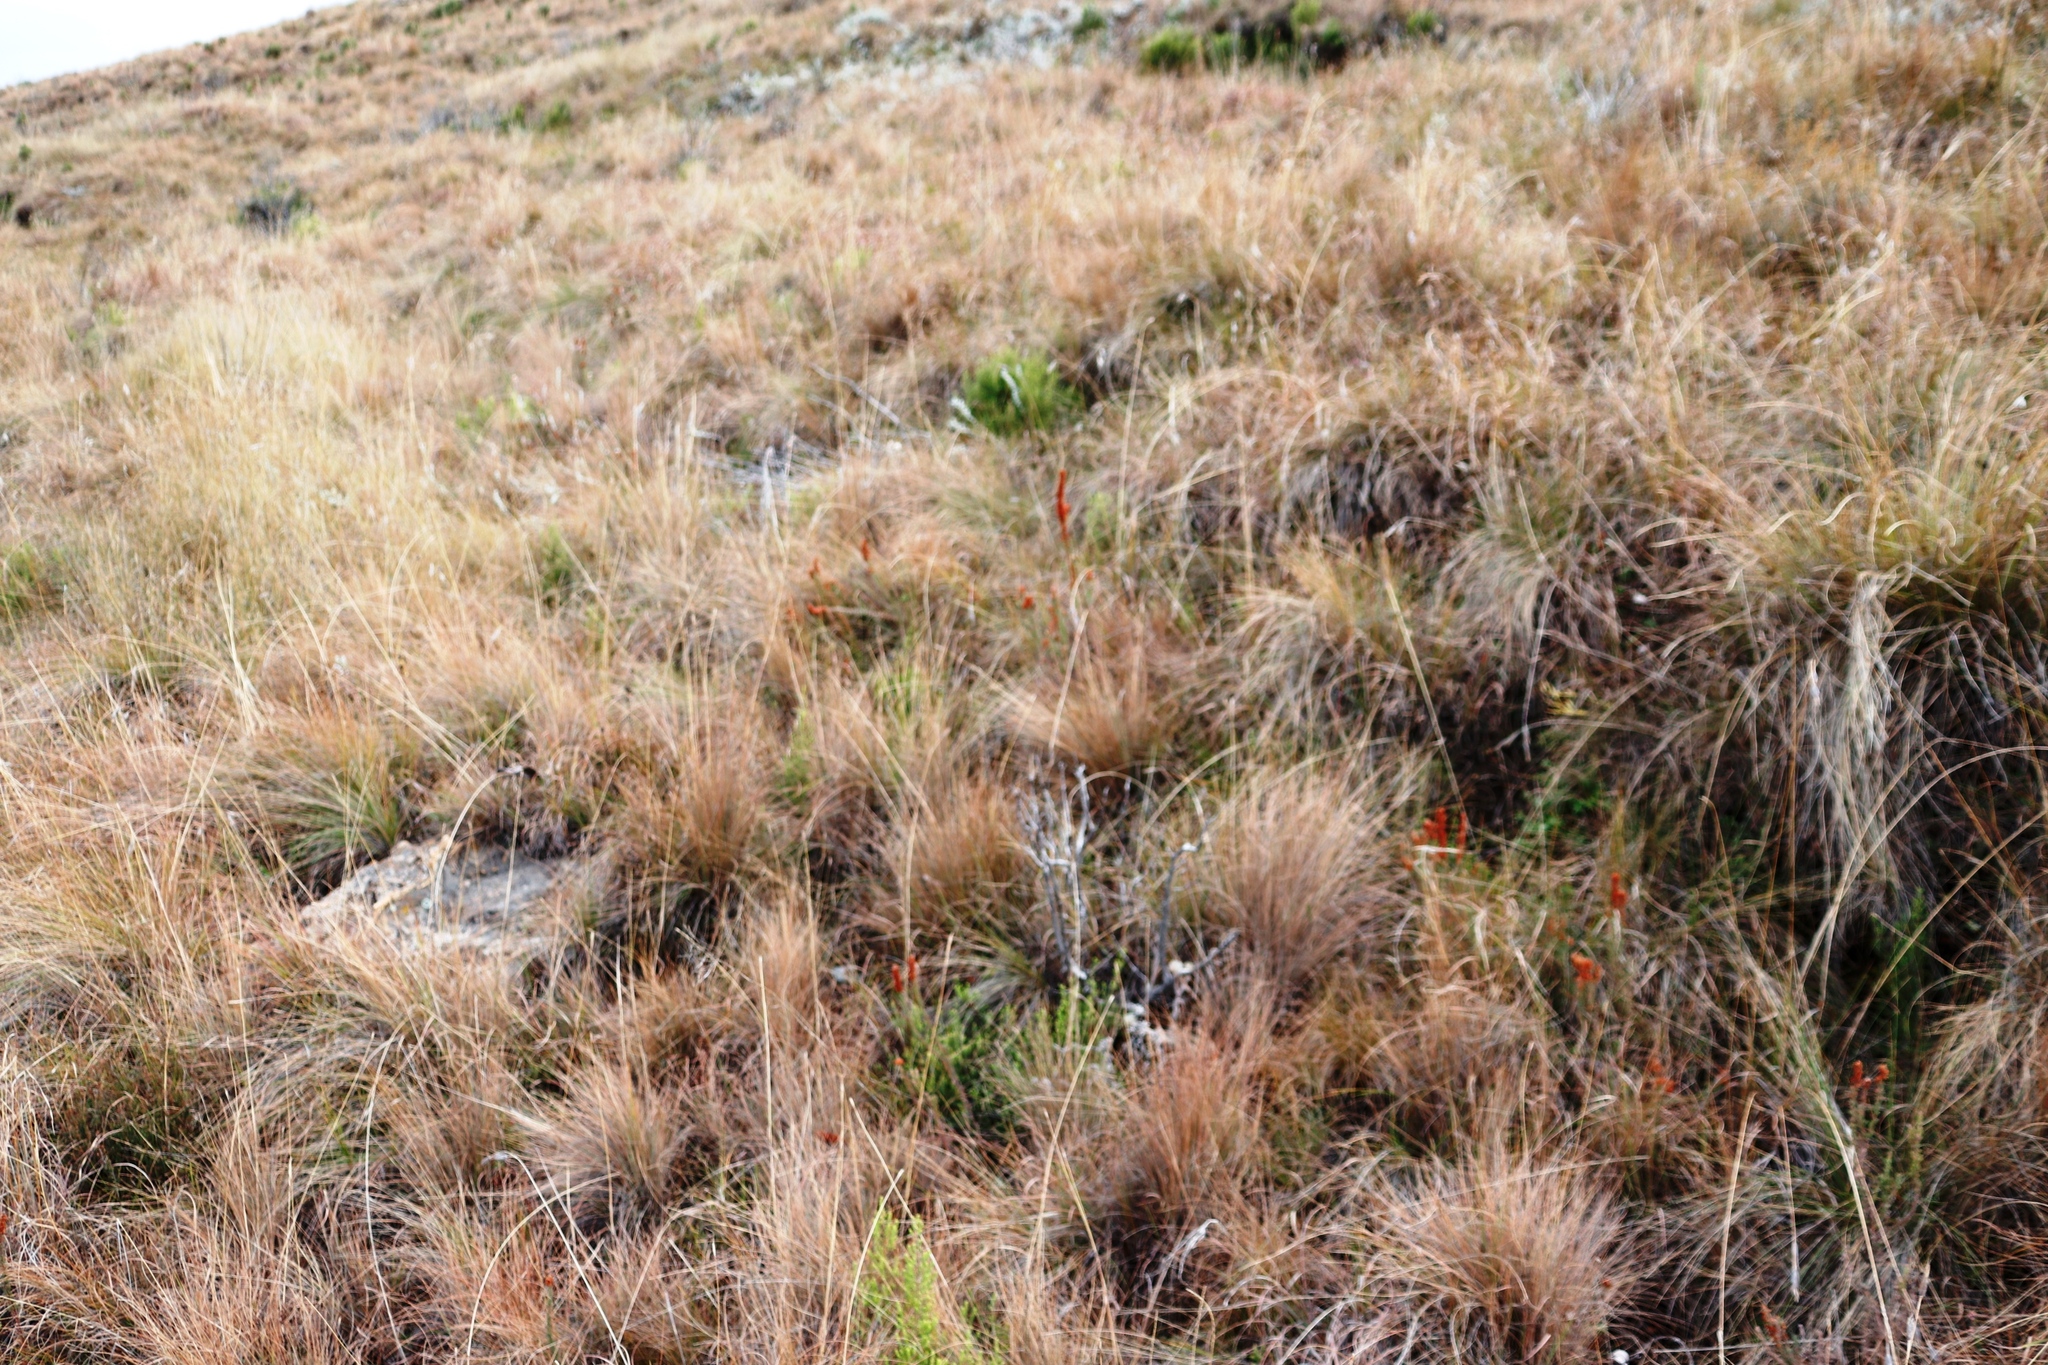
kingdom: Plantae
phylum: Tracheophyta
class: Magnoliopsida
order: Ericales
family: Ericaceae
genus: Erica
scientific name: Erica alopecurus
